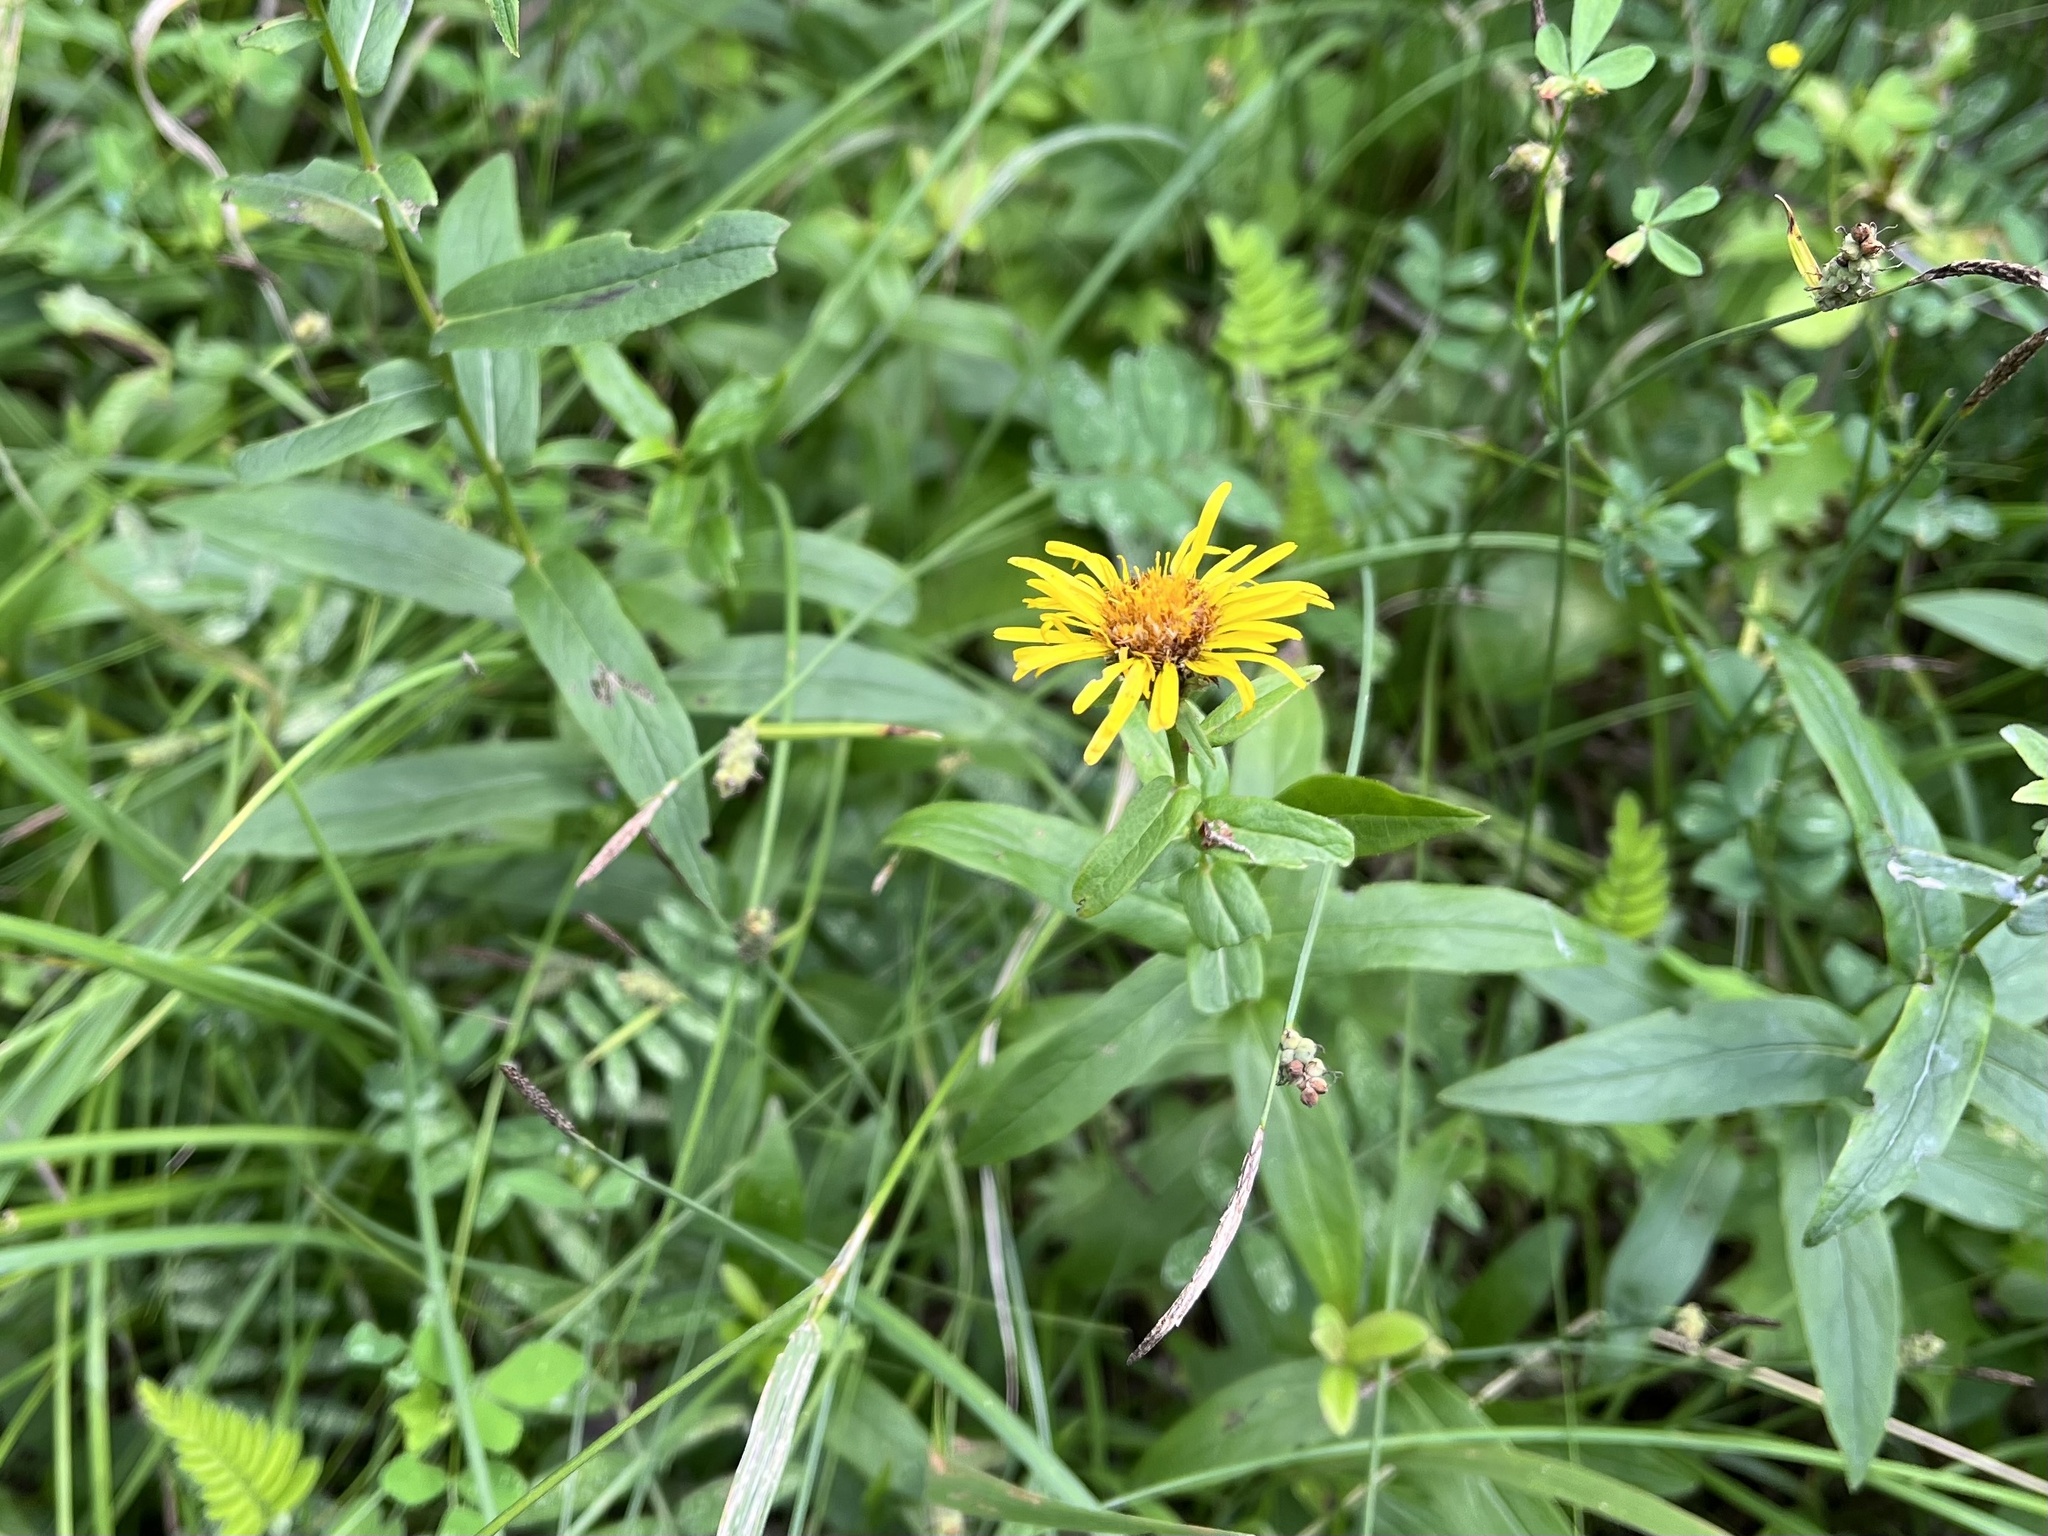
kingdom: Plantae
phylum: Tracheophyta
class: Magnoliopsida
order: Asterales
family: Asteraceae
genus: Pentanema
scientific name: Pentanema salicinum
